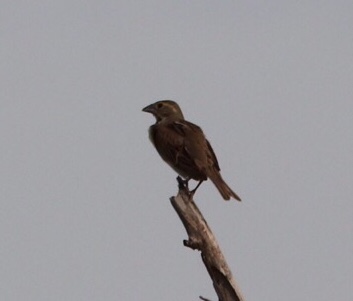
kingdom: Animalia
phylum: Chordata
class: Aves
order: Passeriformes
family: Cardinalidae
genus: Spiza
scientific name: Spiza americana
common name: Dickcissel
